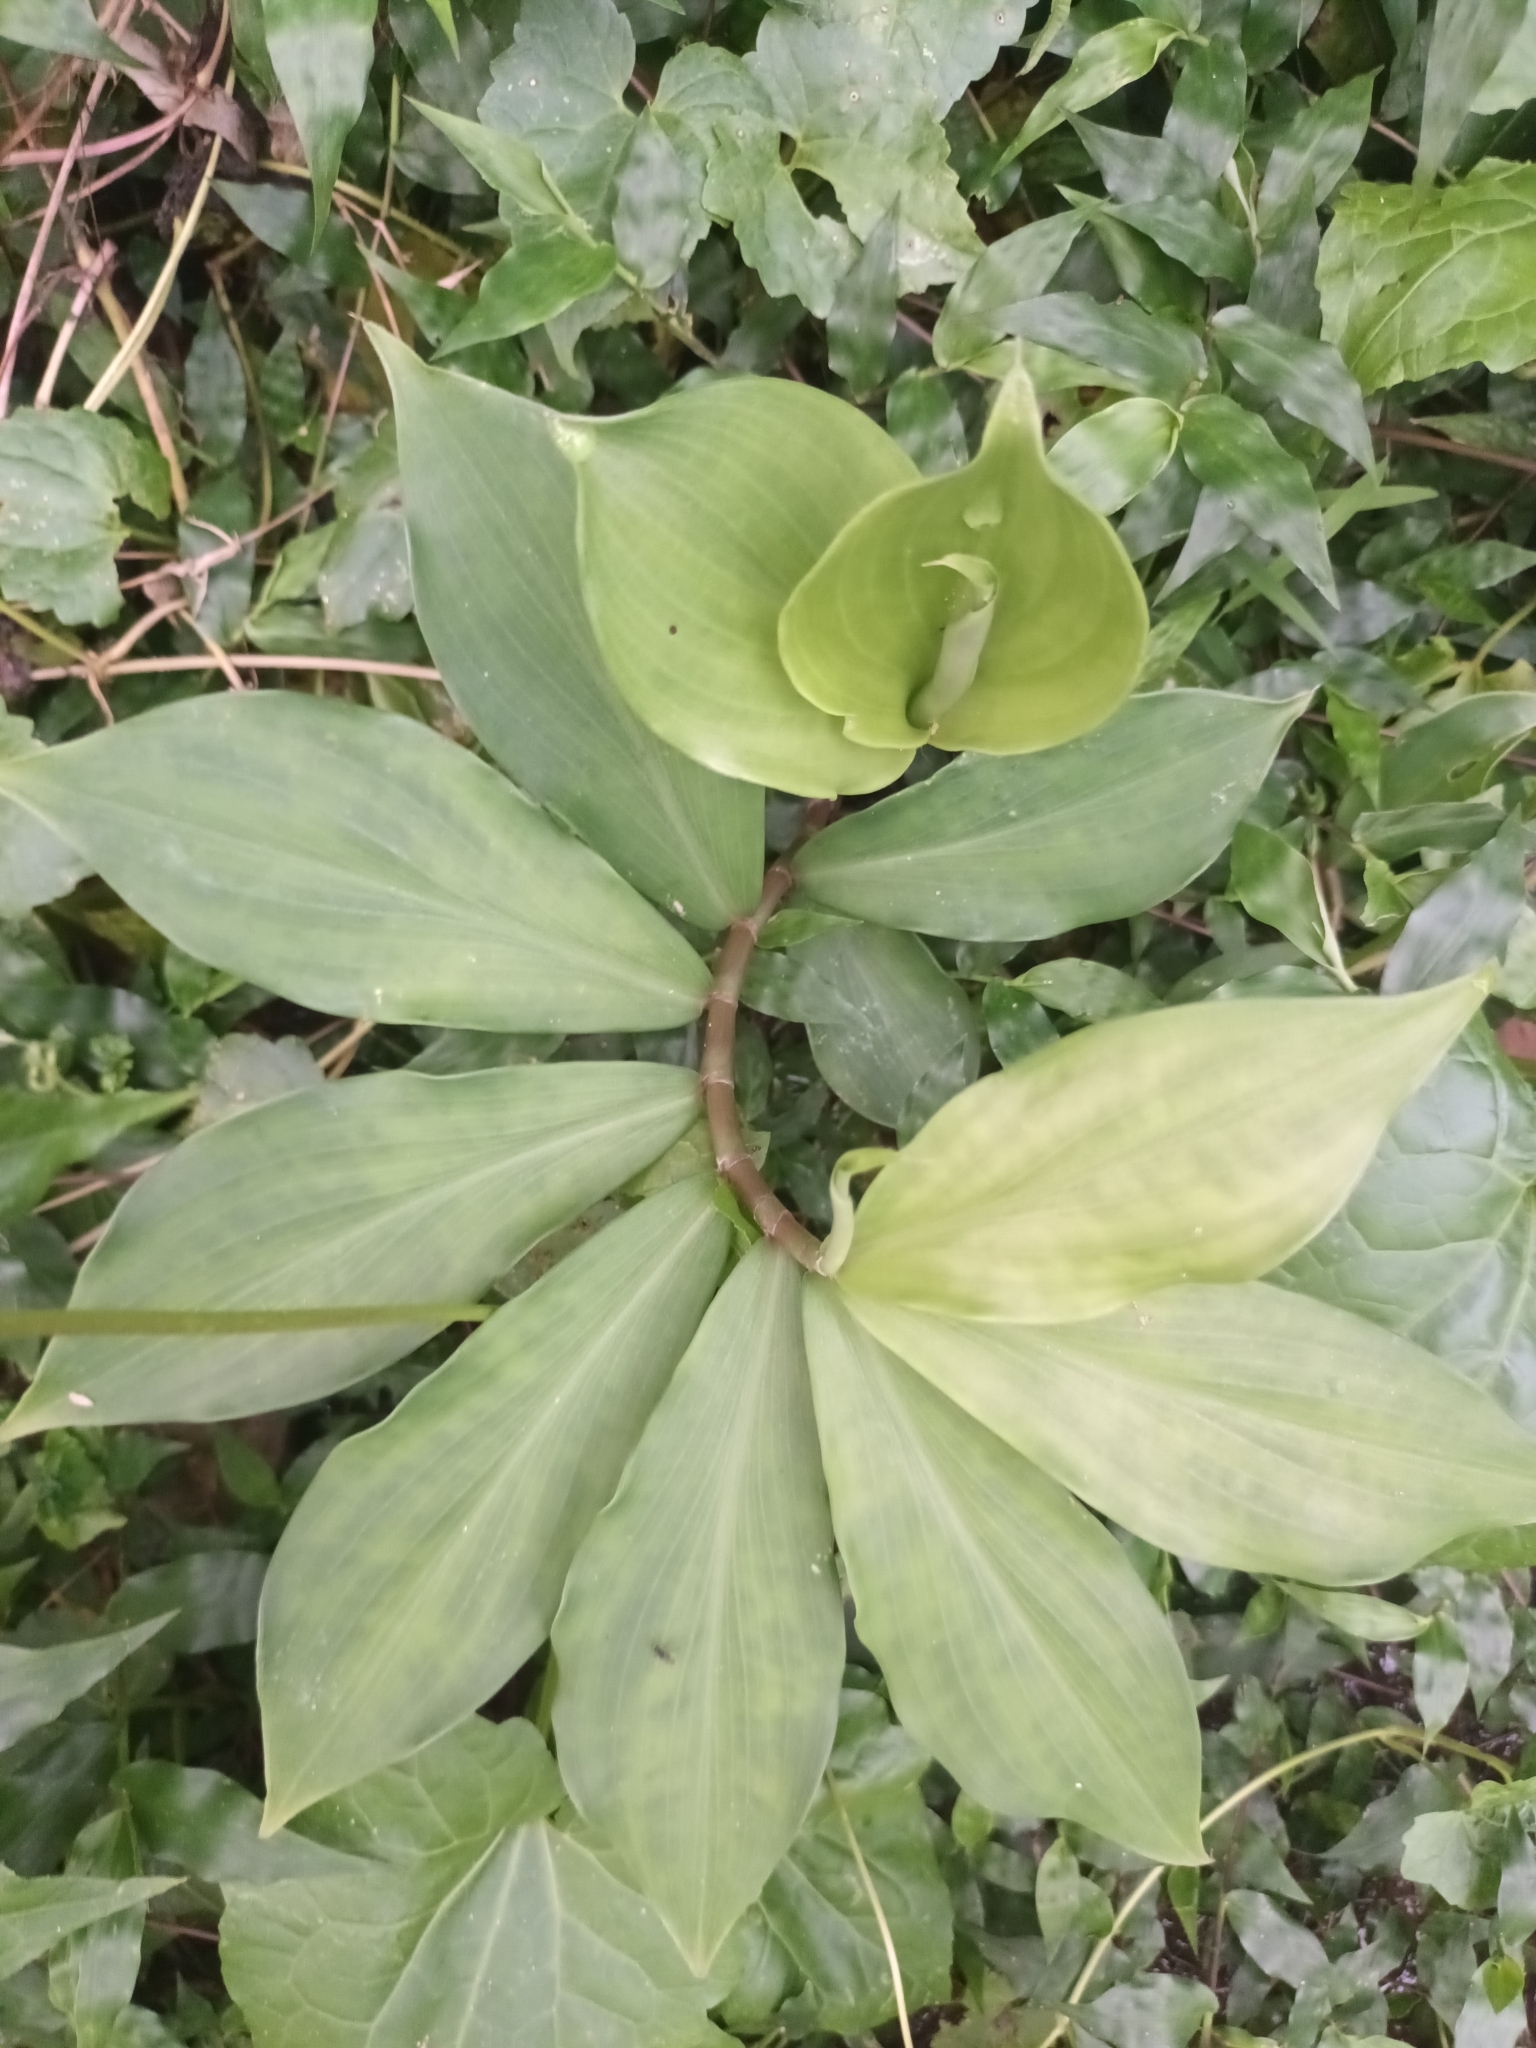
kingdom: Plantae
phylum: Tracheophyta
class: Liliopsida
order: Zingiberales
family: Costaceae
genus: Hellenia
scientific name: Hellenia speciosa
